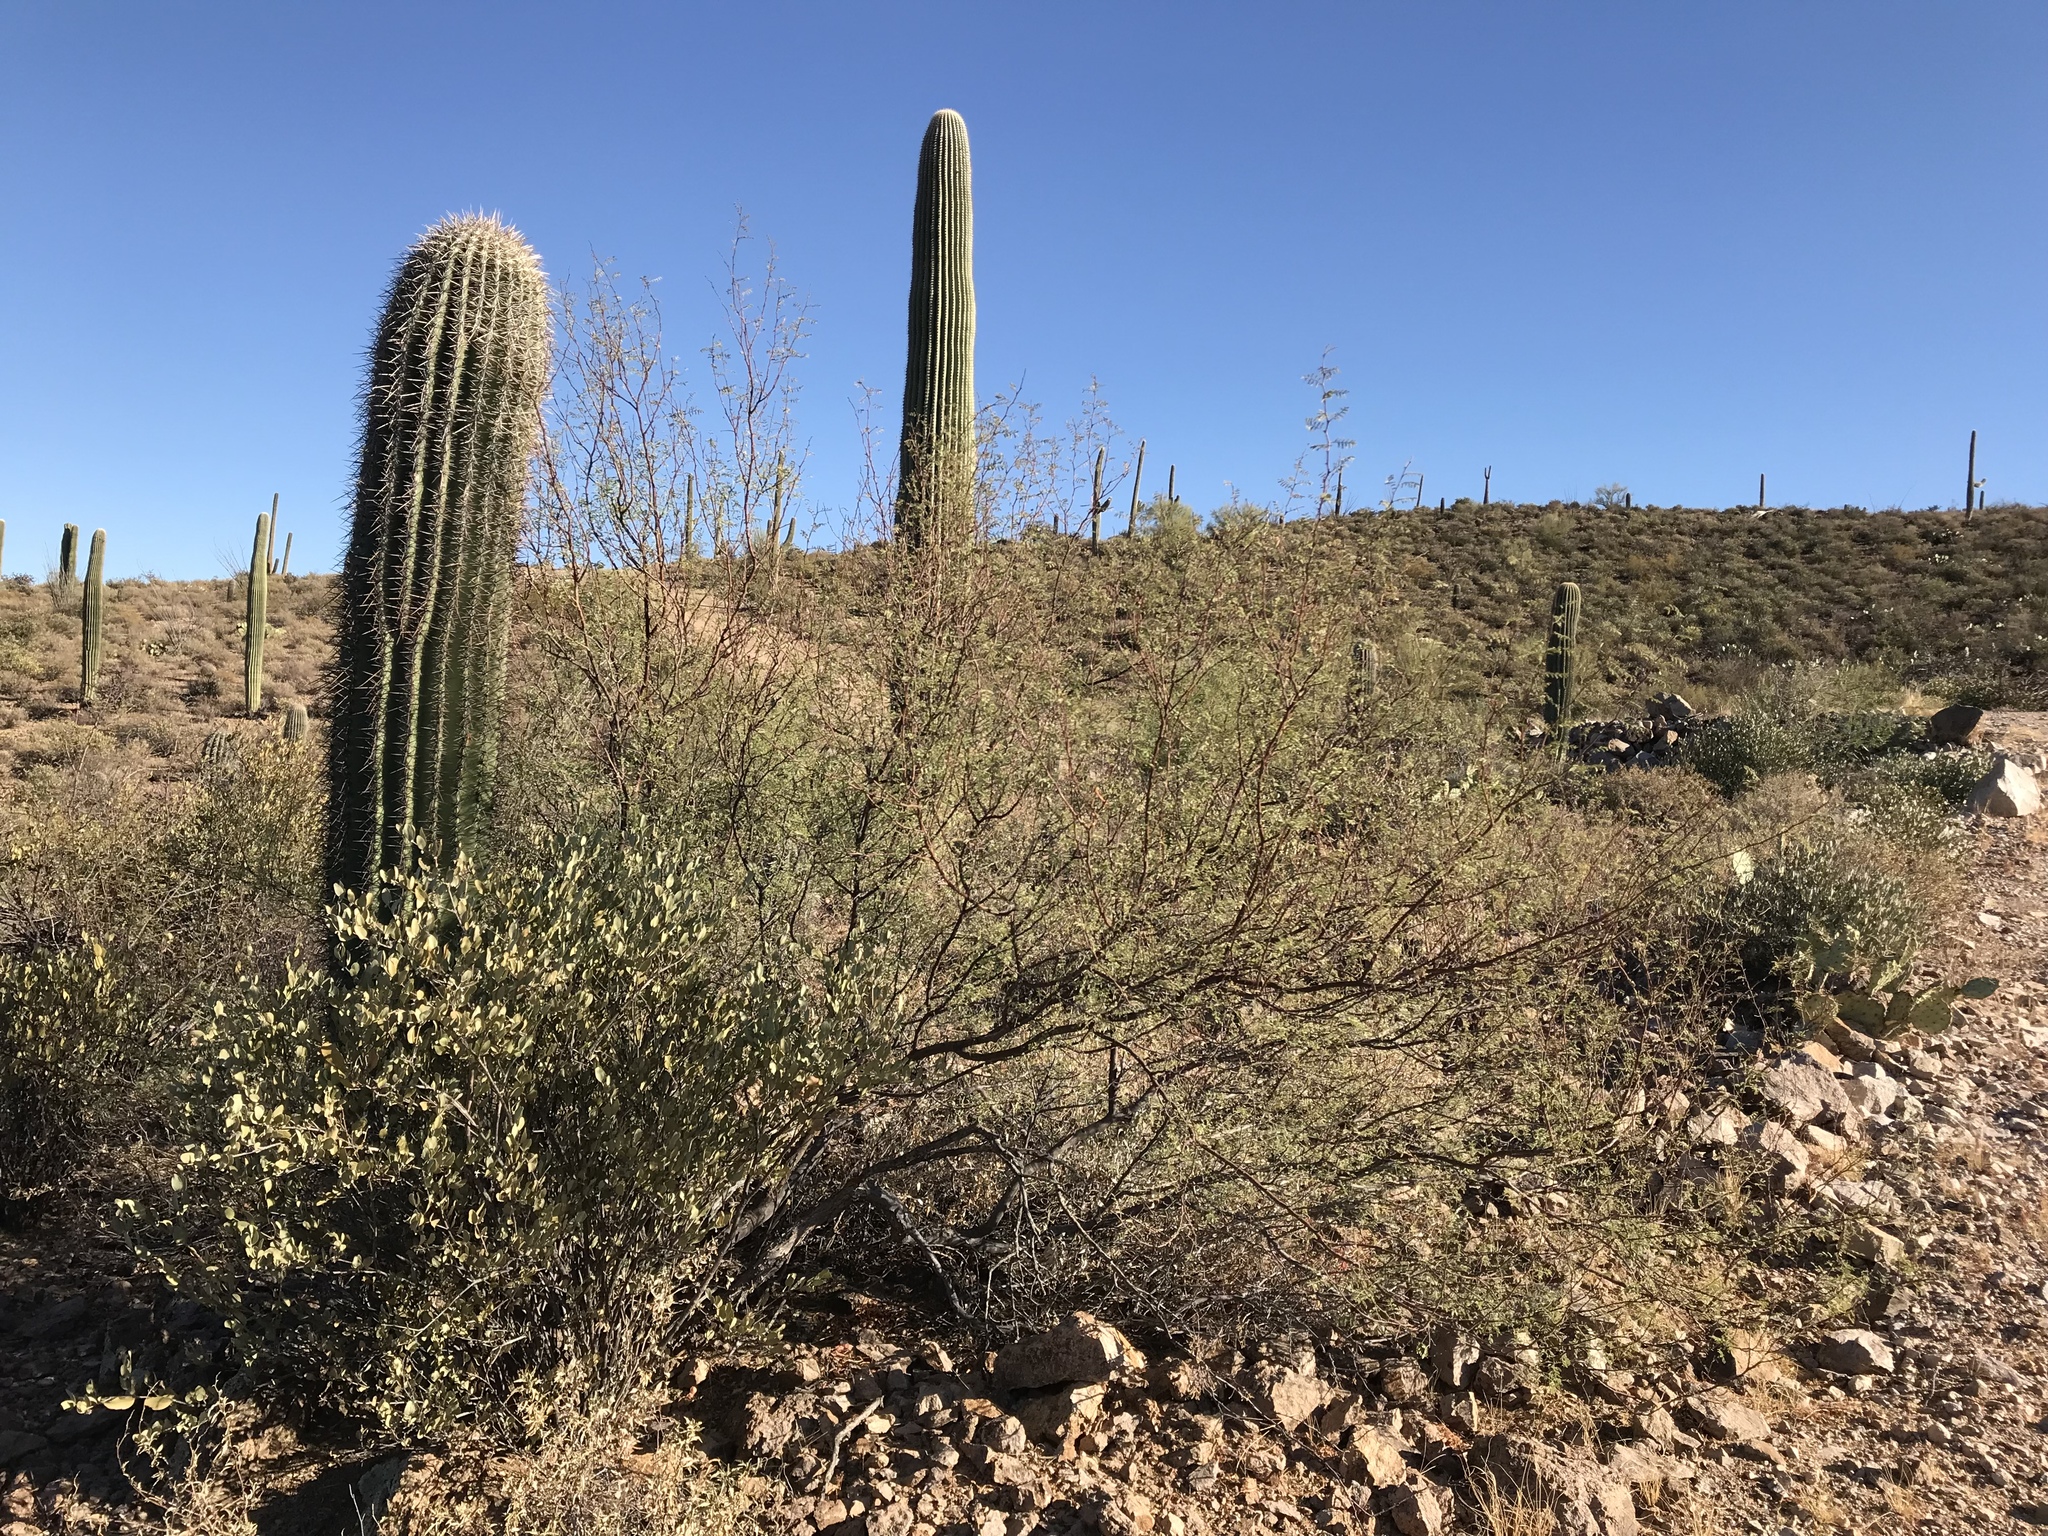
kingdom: Plantae
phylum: Tracheophyta
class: Magnoliopsida
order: Fabales
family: Fabaceae
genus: Vachellia
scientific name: Vachellia constricta
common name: Mescat acacia
